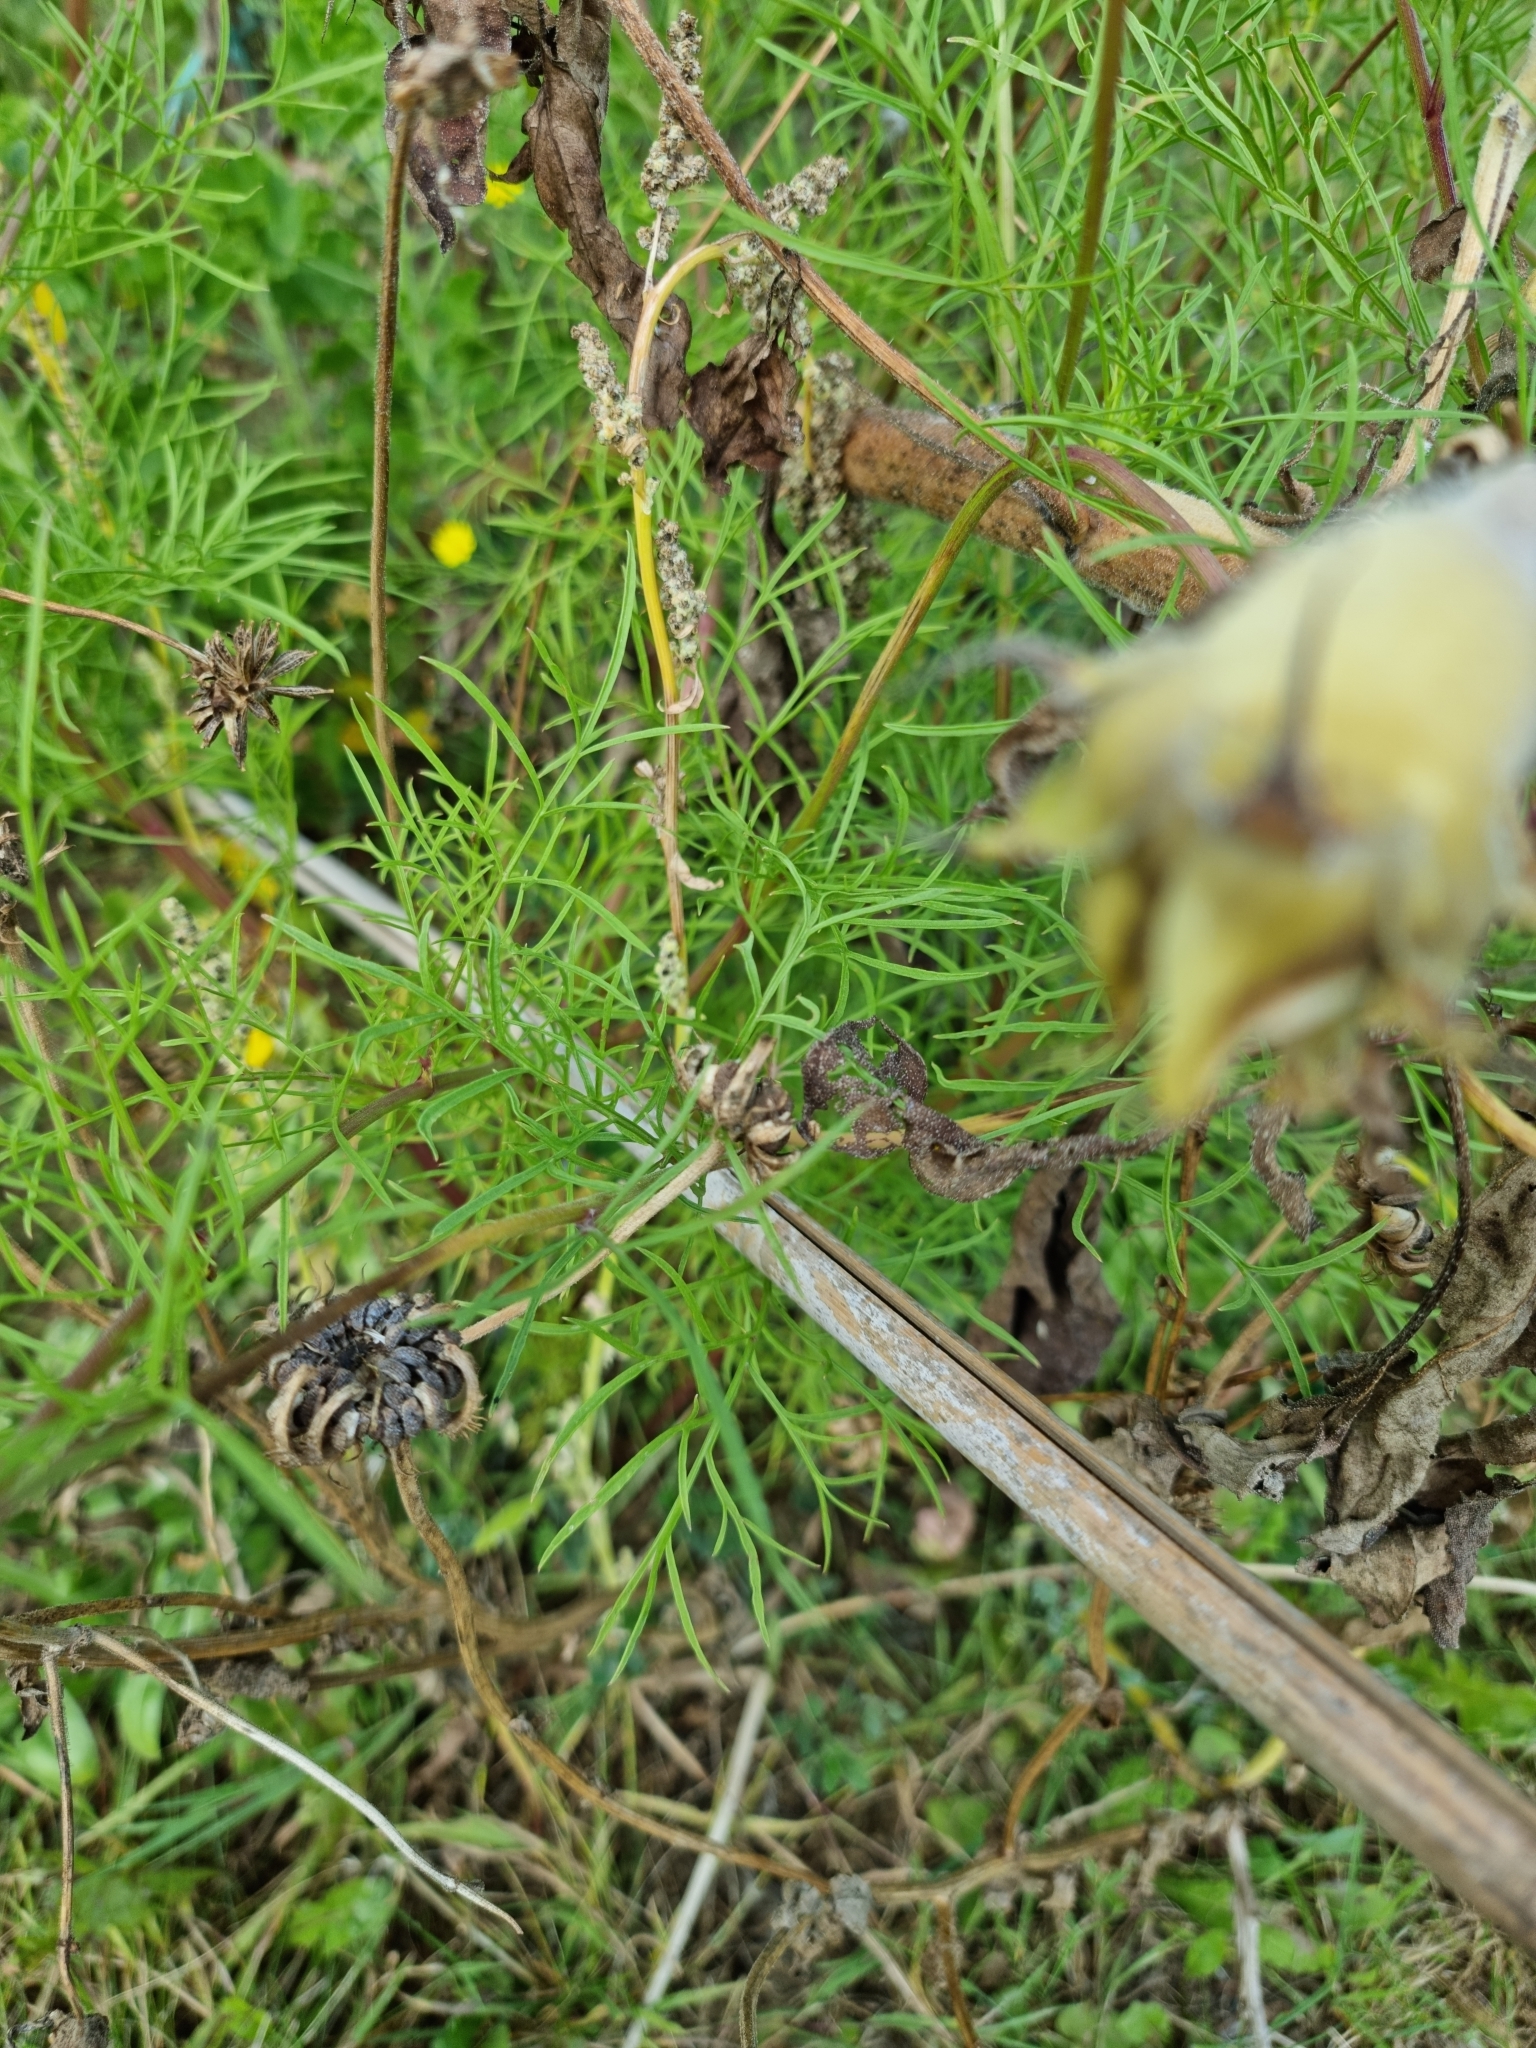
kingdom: Plantae
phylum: Tracheophyta
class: Magnoliopsida
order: Asterales
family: Asteraceae
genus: Cosmos
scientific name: Cosmos bipinnatus
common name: Garden cosmos
